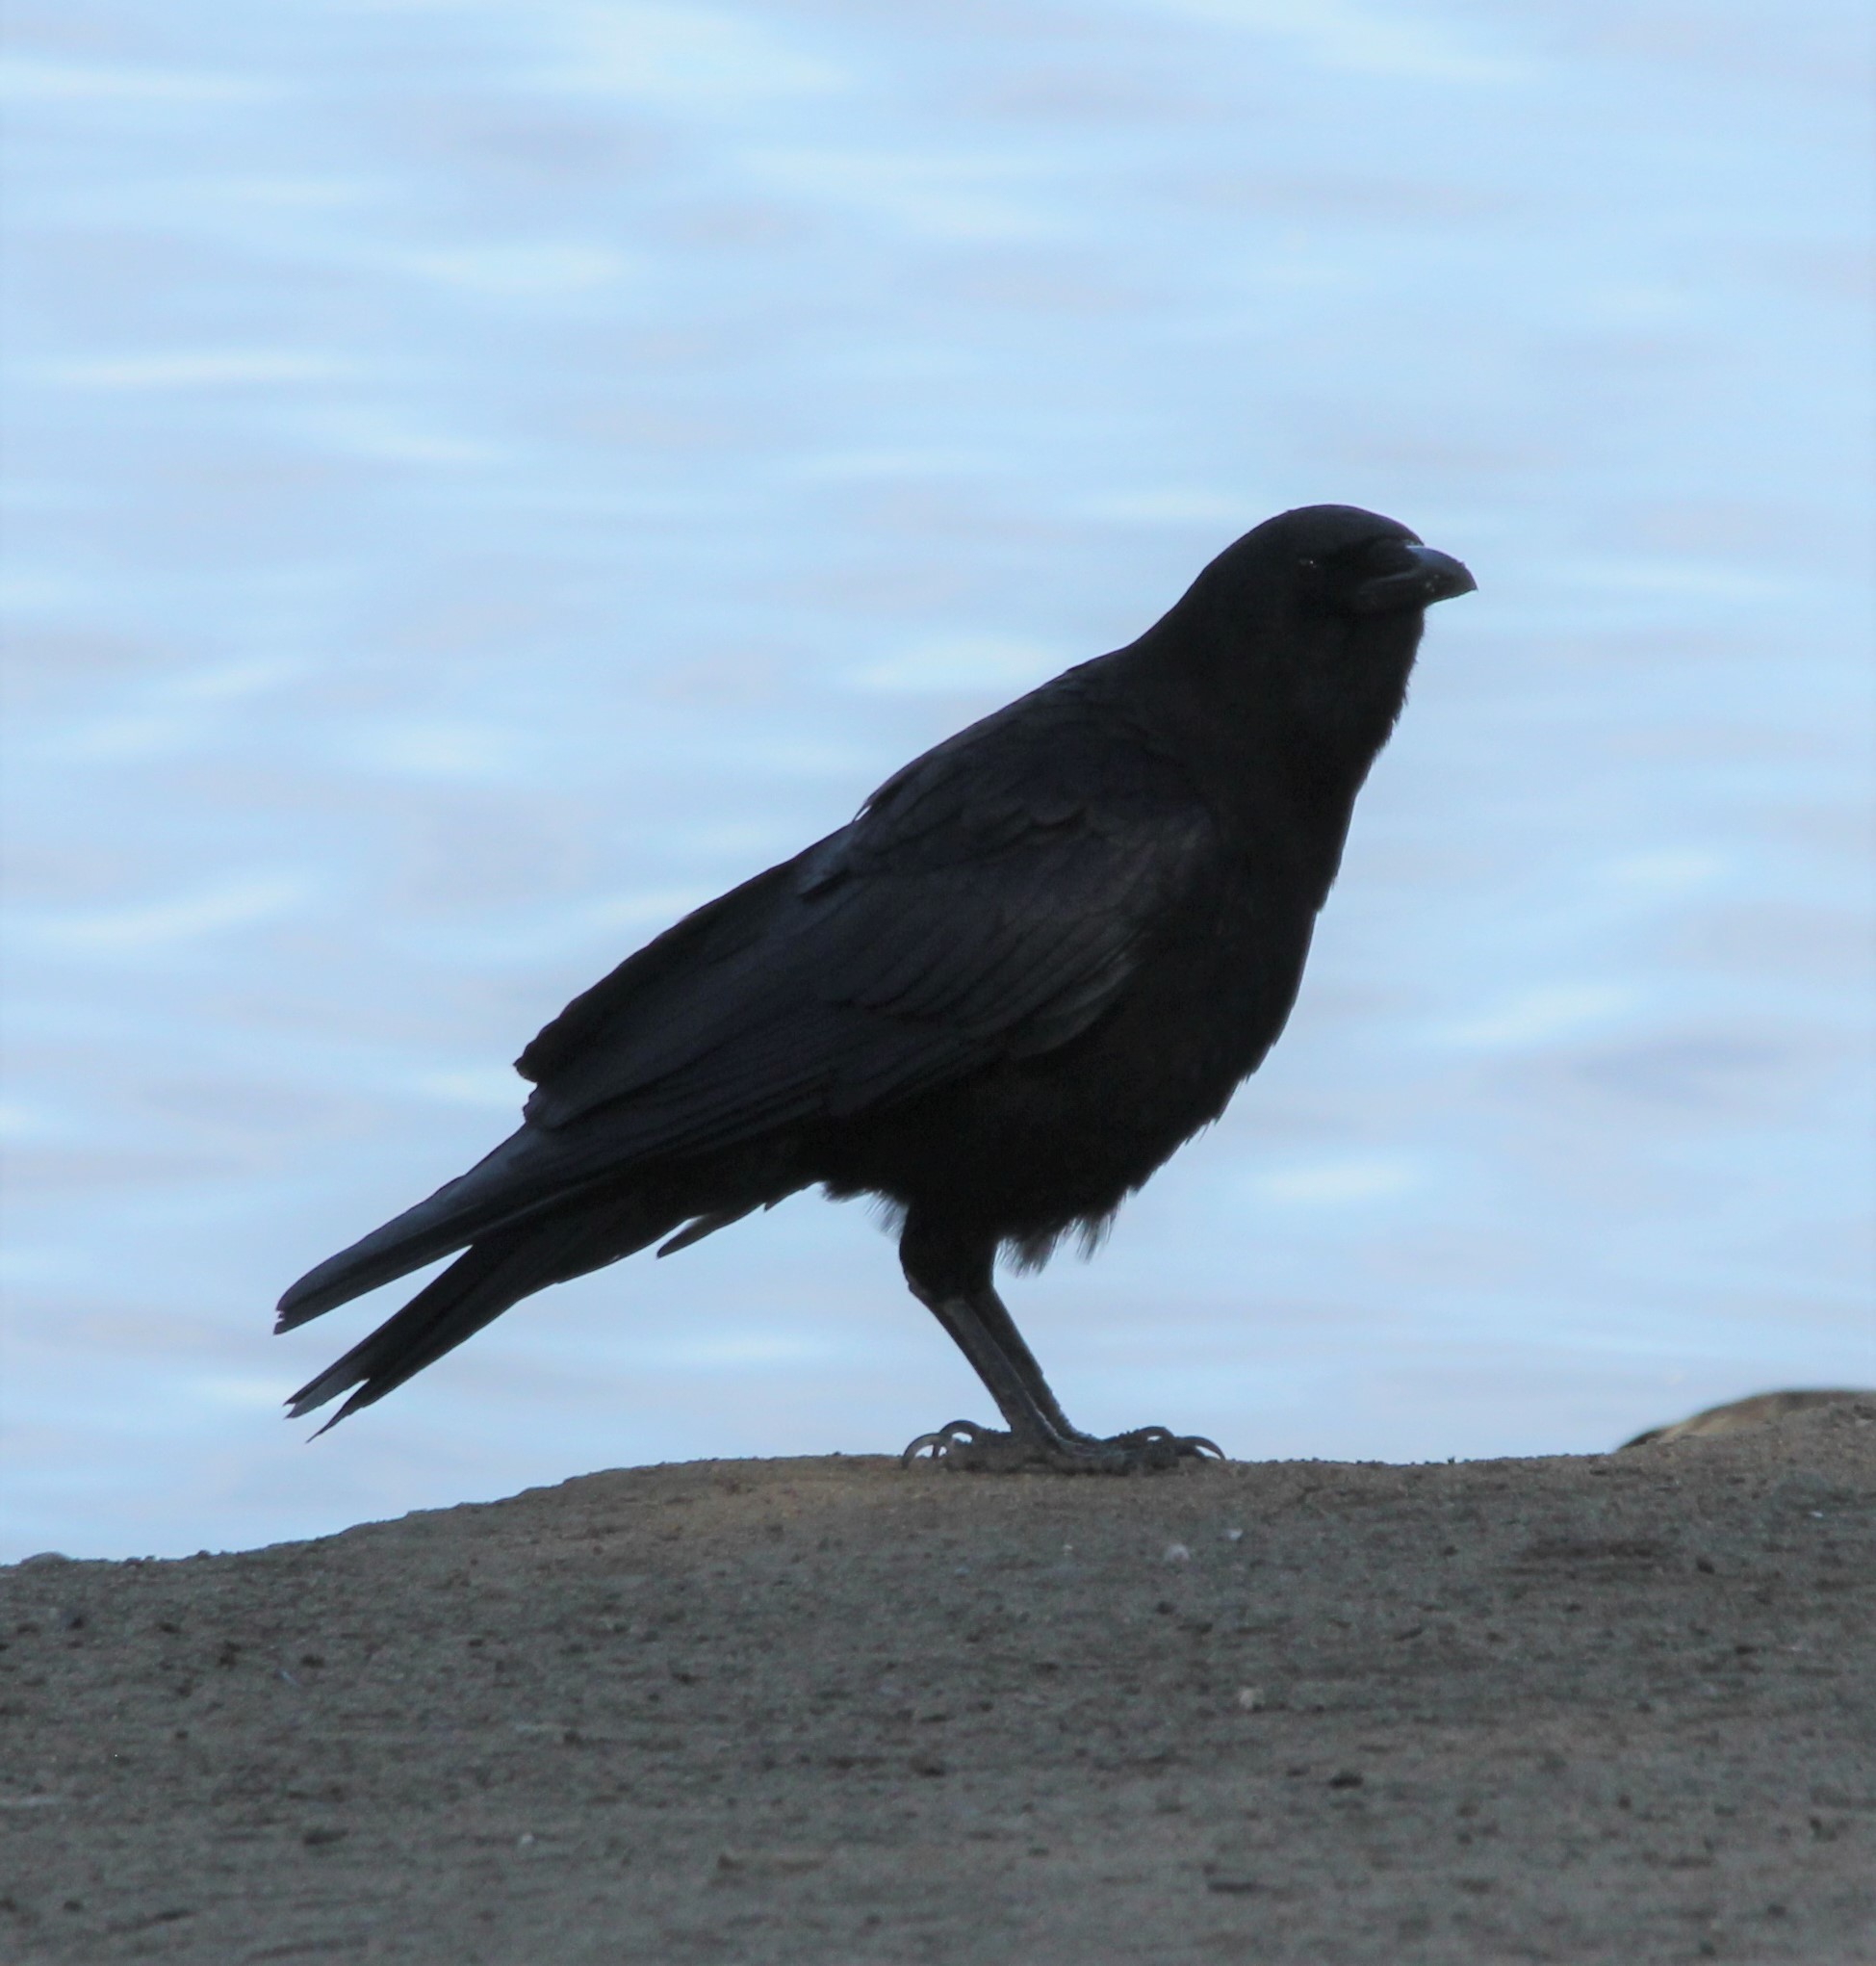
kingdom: Animalia
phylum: Chordata
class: Aves
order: Passeriformes
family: Corvidae
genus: Corvus
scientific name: Corvus brachyrhynchos
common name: American crow
